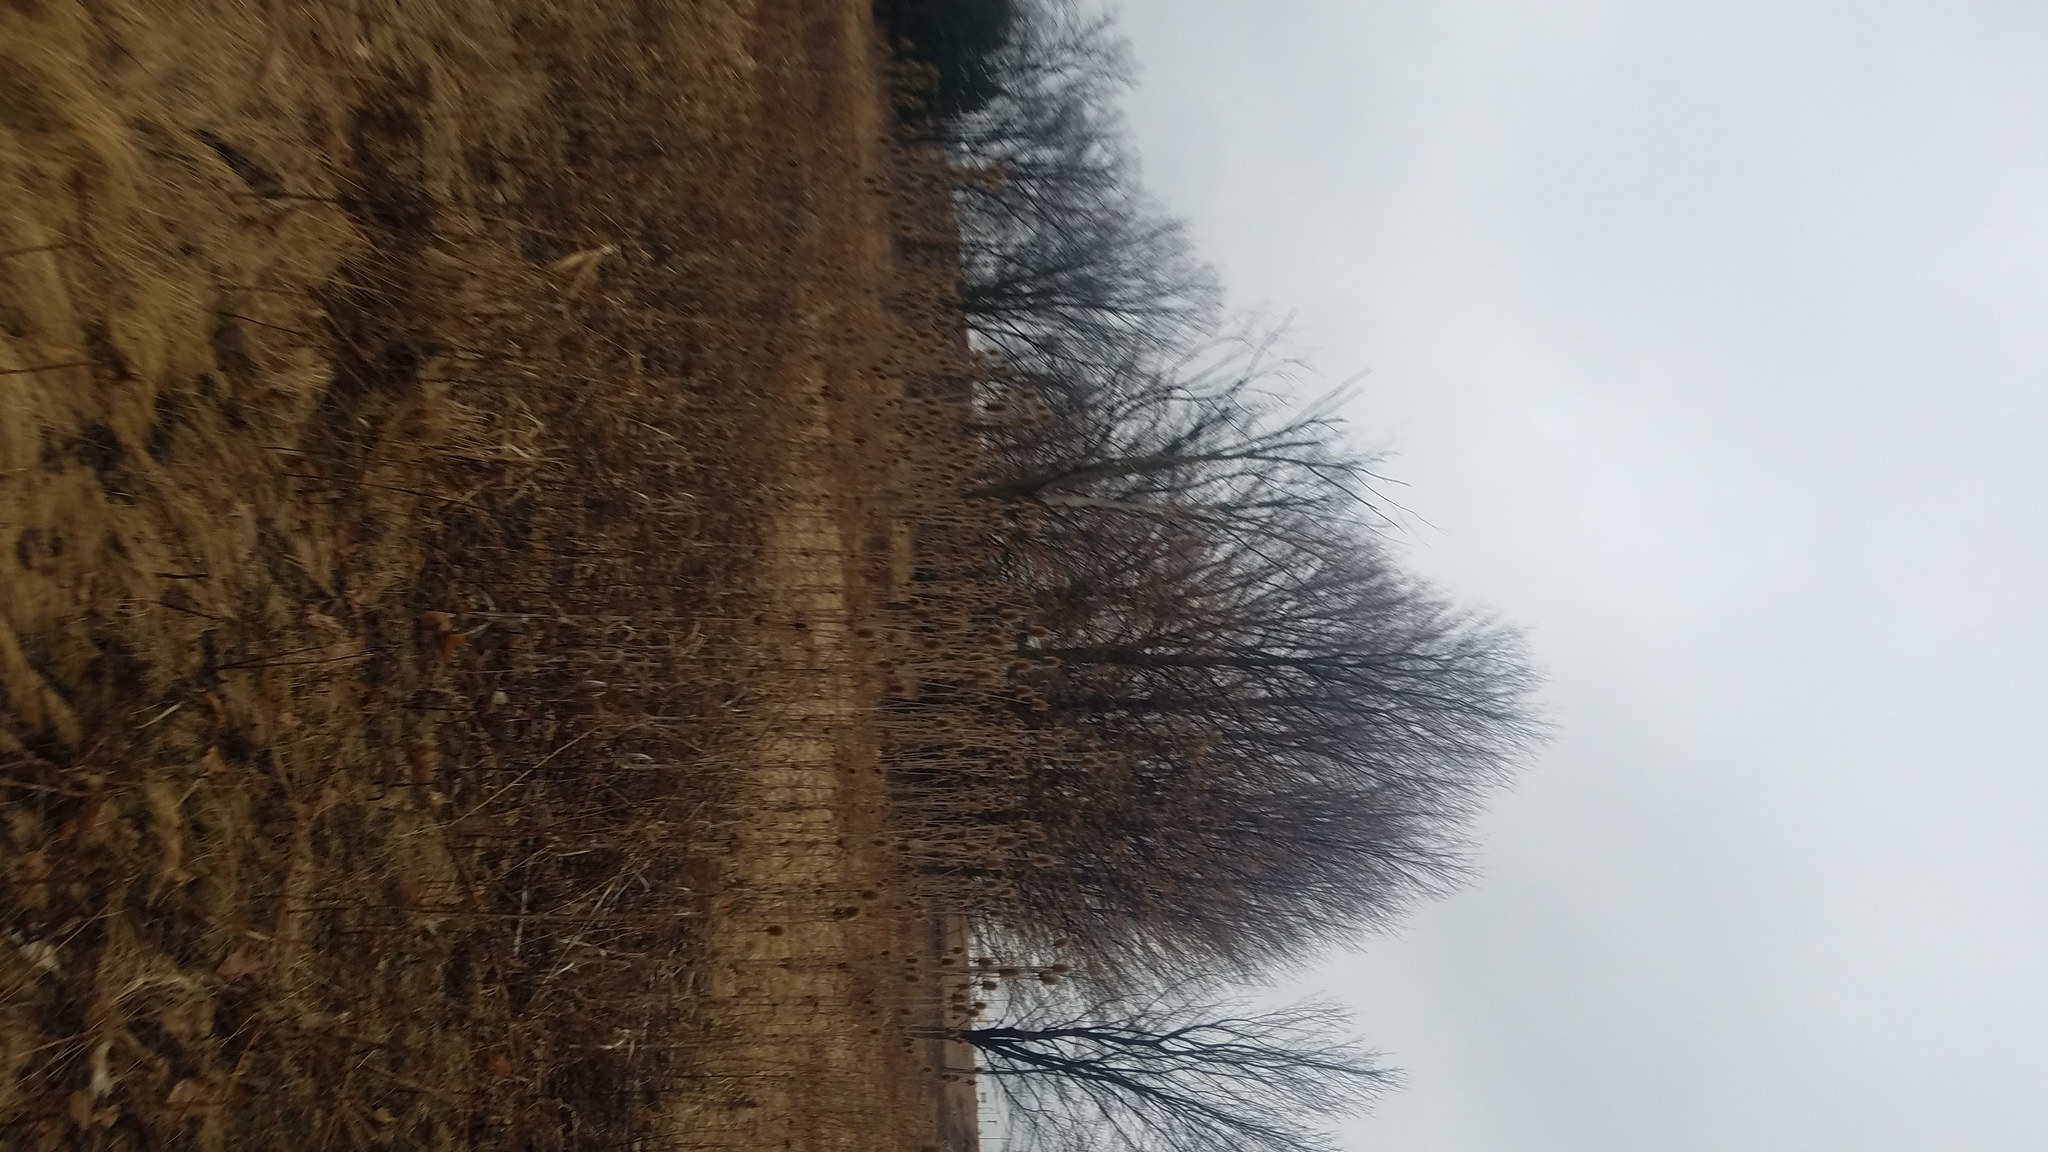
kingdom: Plantae
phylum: Tracheophyta
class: Magnoliopsida
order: Dipsacales
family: Caprifoliaceae
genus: Dipsacus
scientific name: Dipsacus laciniatus
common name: Cut-leaved teasel
